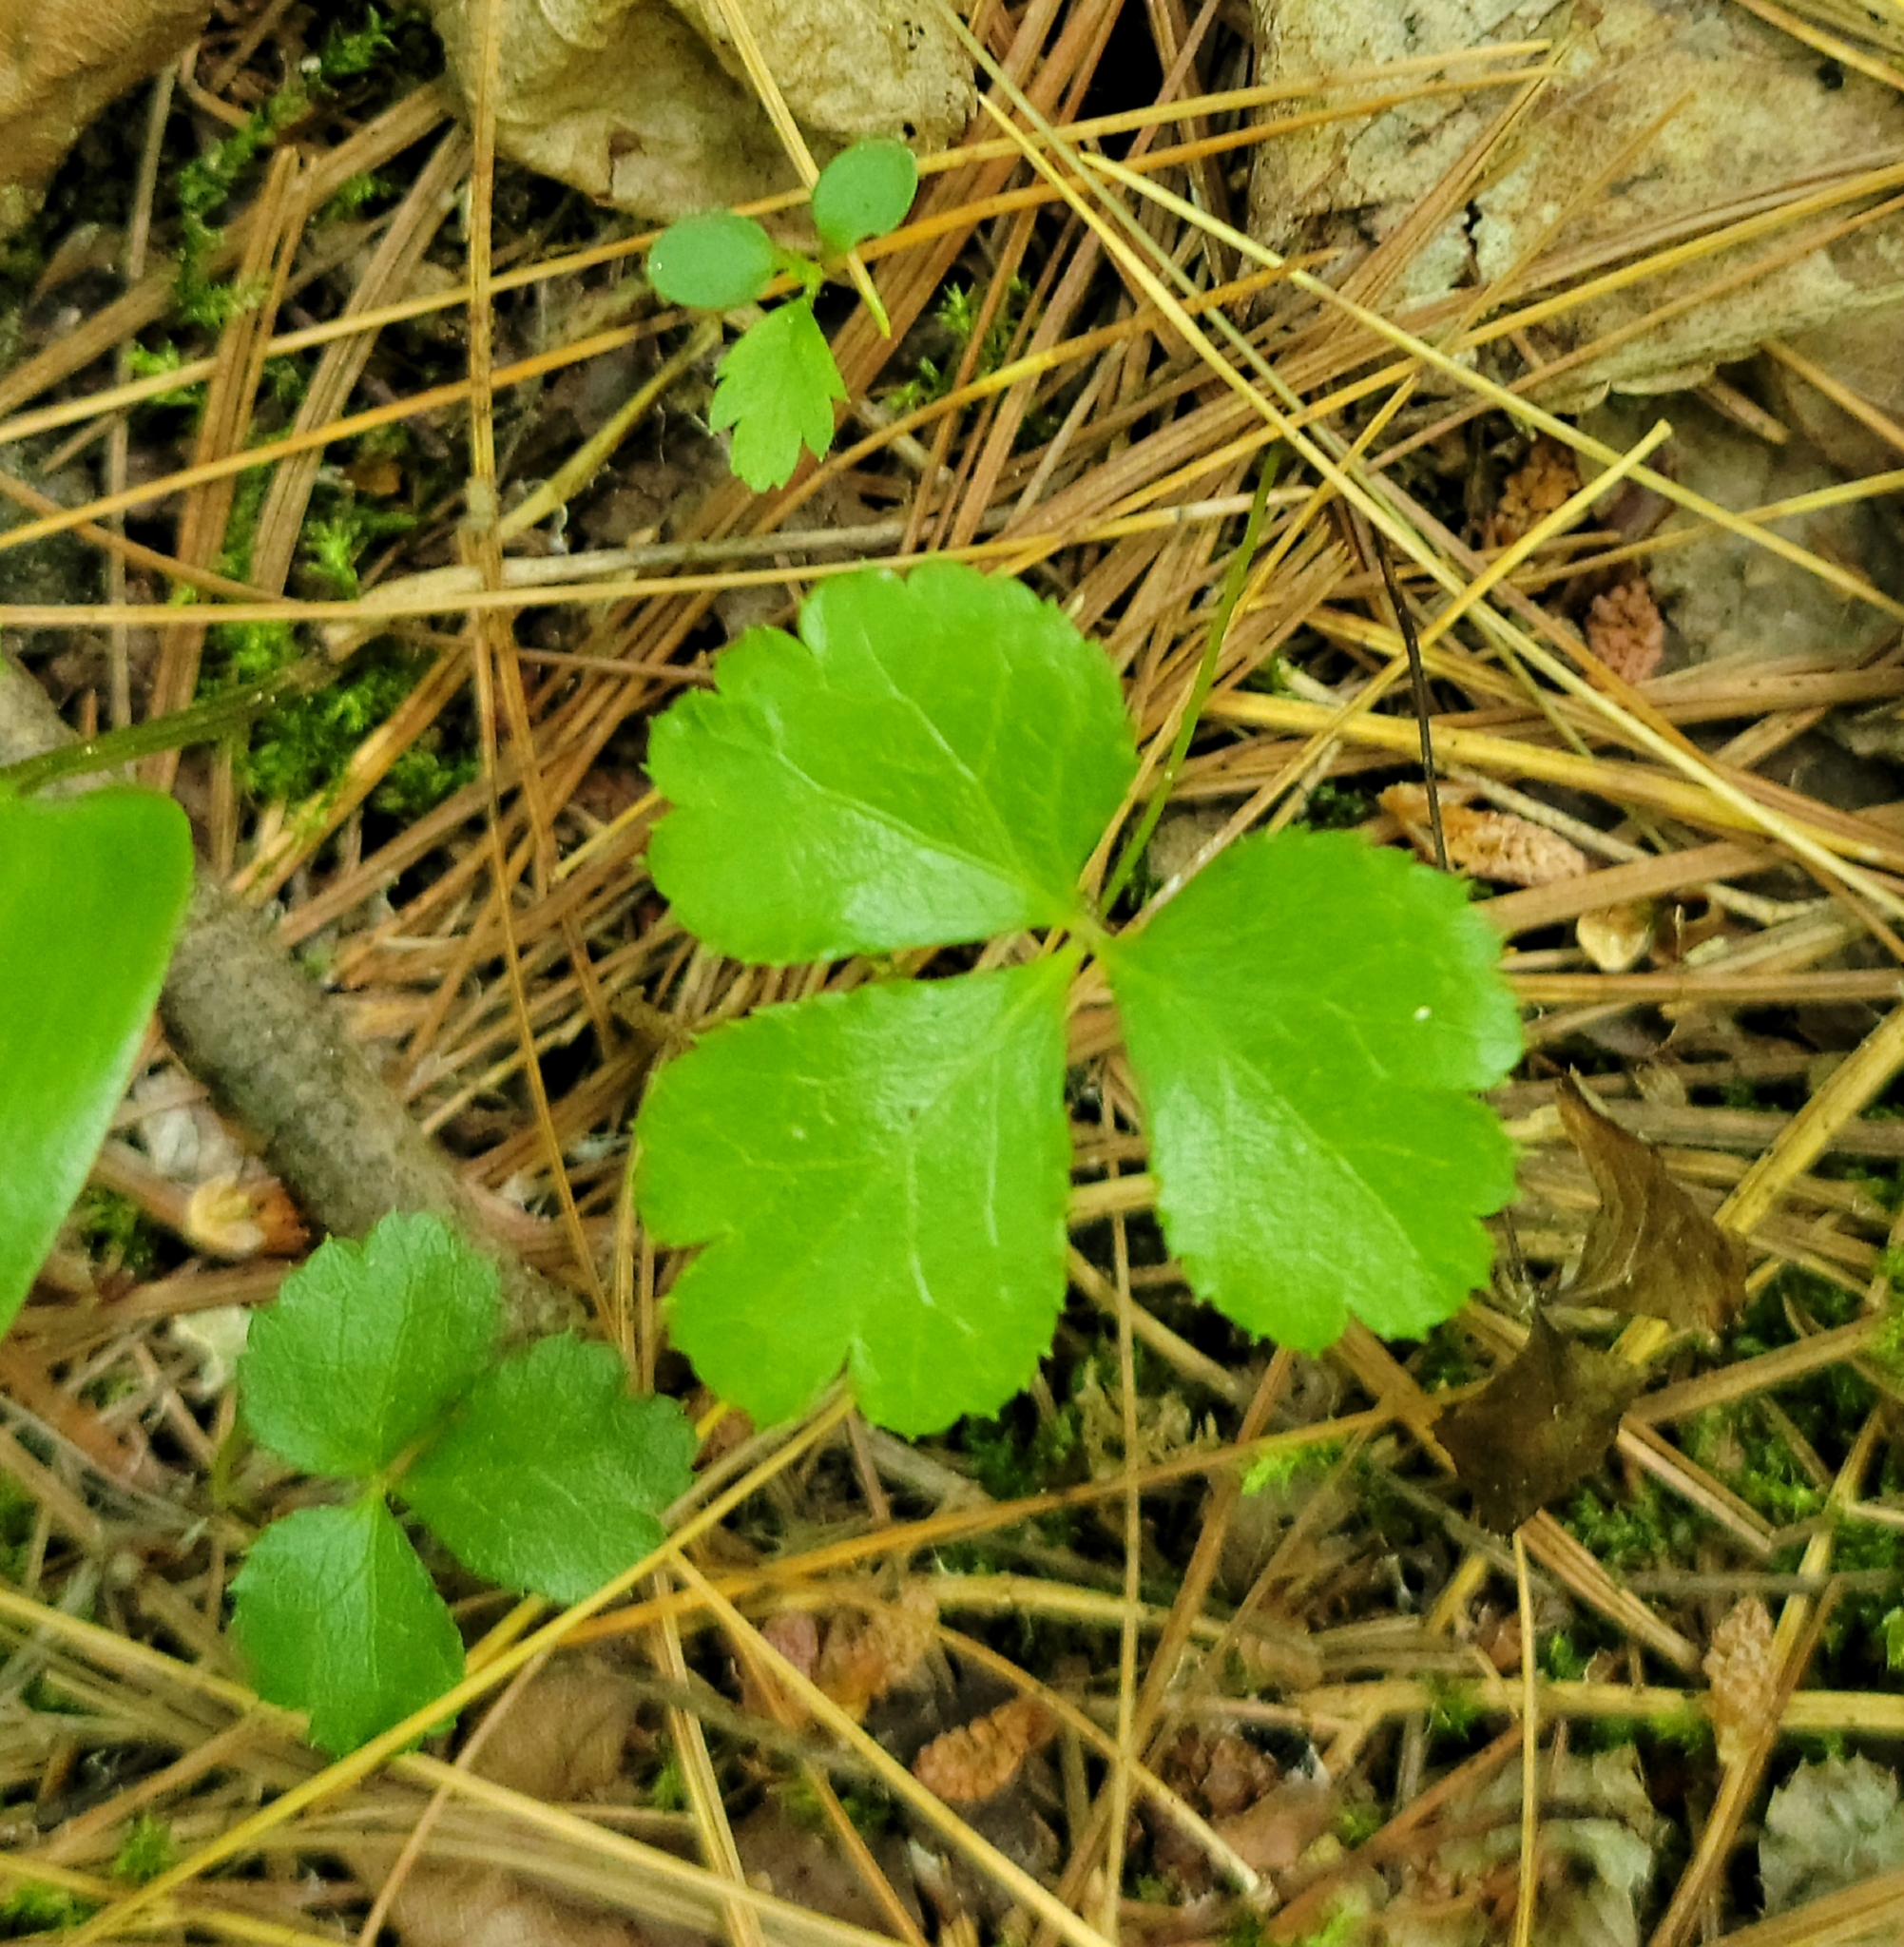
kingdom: Plantae
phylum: Tracheophyta
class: Magnoliopsida
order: Ranunculales
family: Ranunculaceae
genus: Coptis
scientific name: Coptis trifolia
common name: Canker-root
